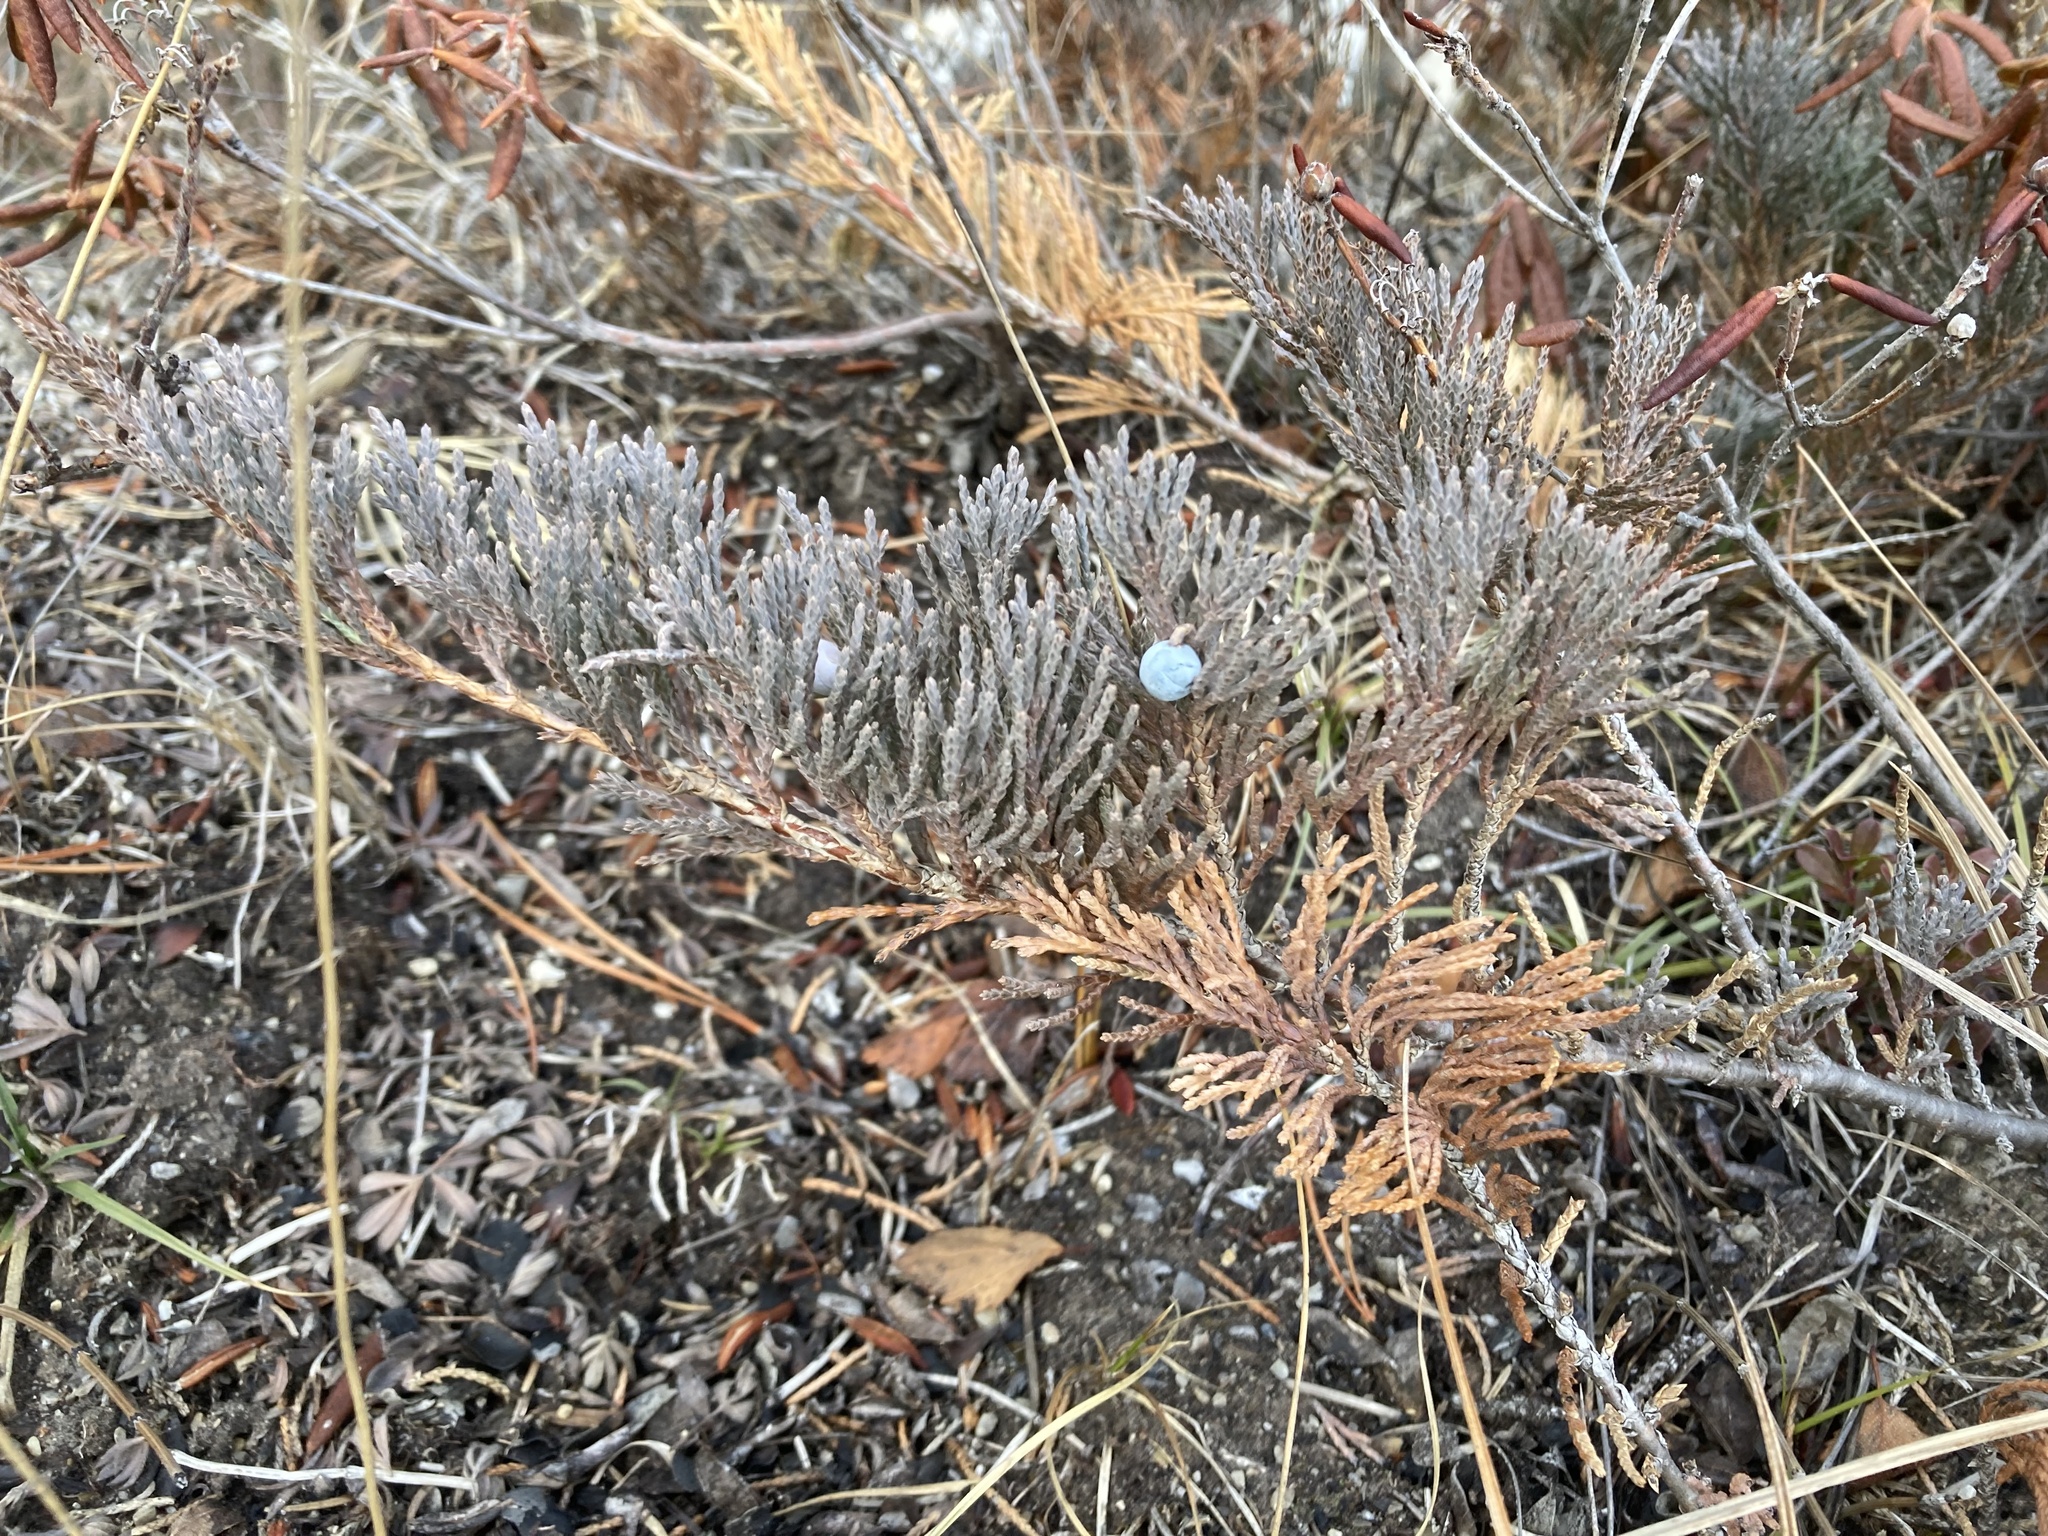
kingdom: Plantae
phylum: Tracheophyta
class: Pinopsida
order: Pinales
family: Cupressaceae
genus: Juniperus
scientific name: Juniperus horizontalis
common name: Creeping juniper
